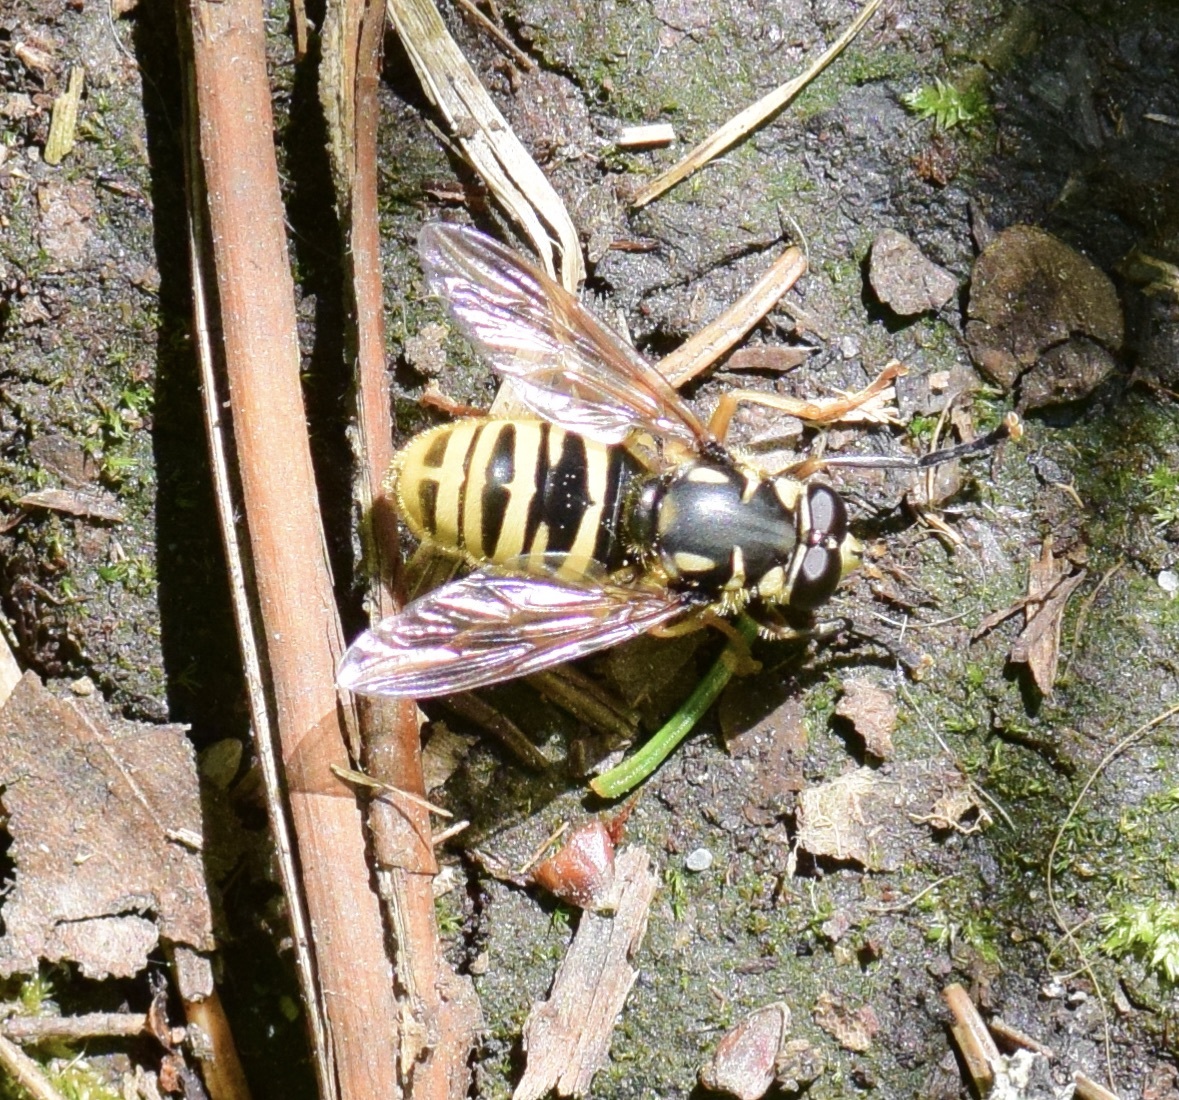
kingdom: Animalia
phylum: Arthropoda
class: Insecta
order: Diptera
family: Syrphidae
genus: Temnostoma
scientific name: Temnostoma excentricum
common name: Black-spotted falsehorn
